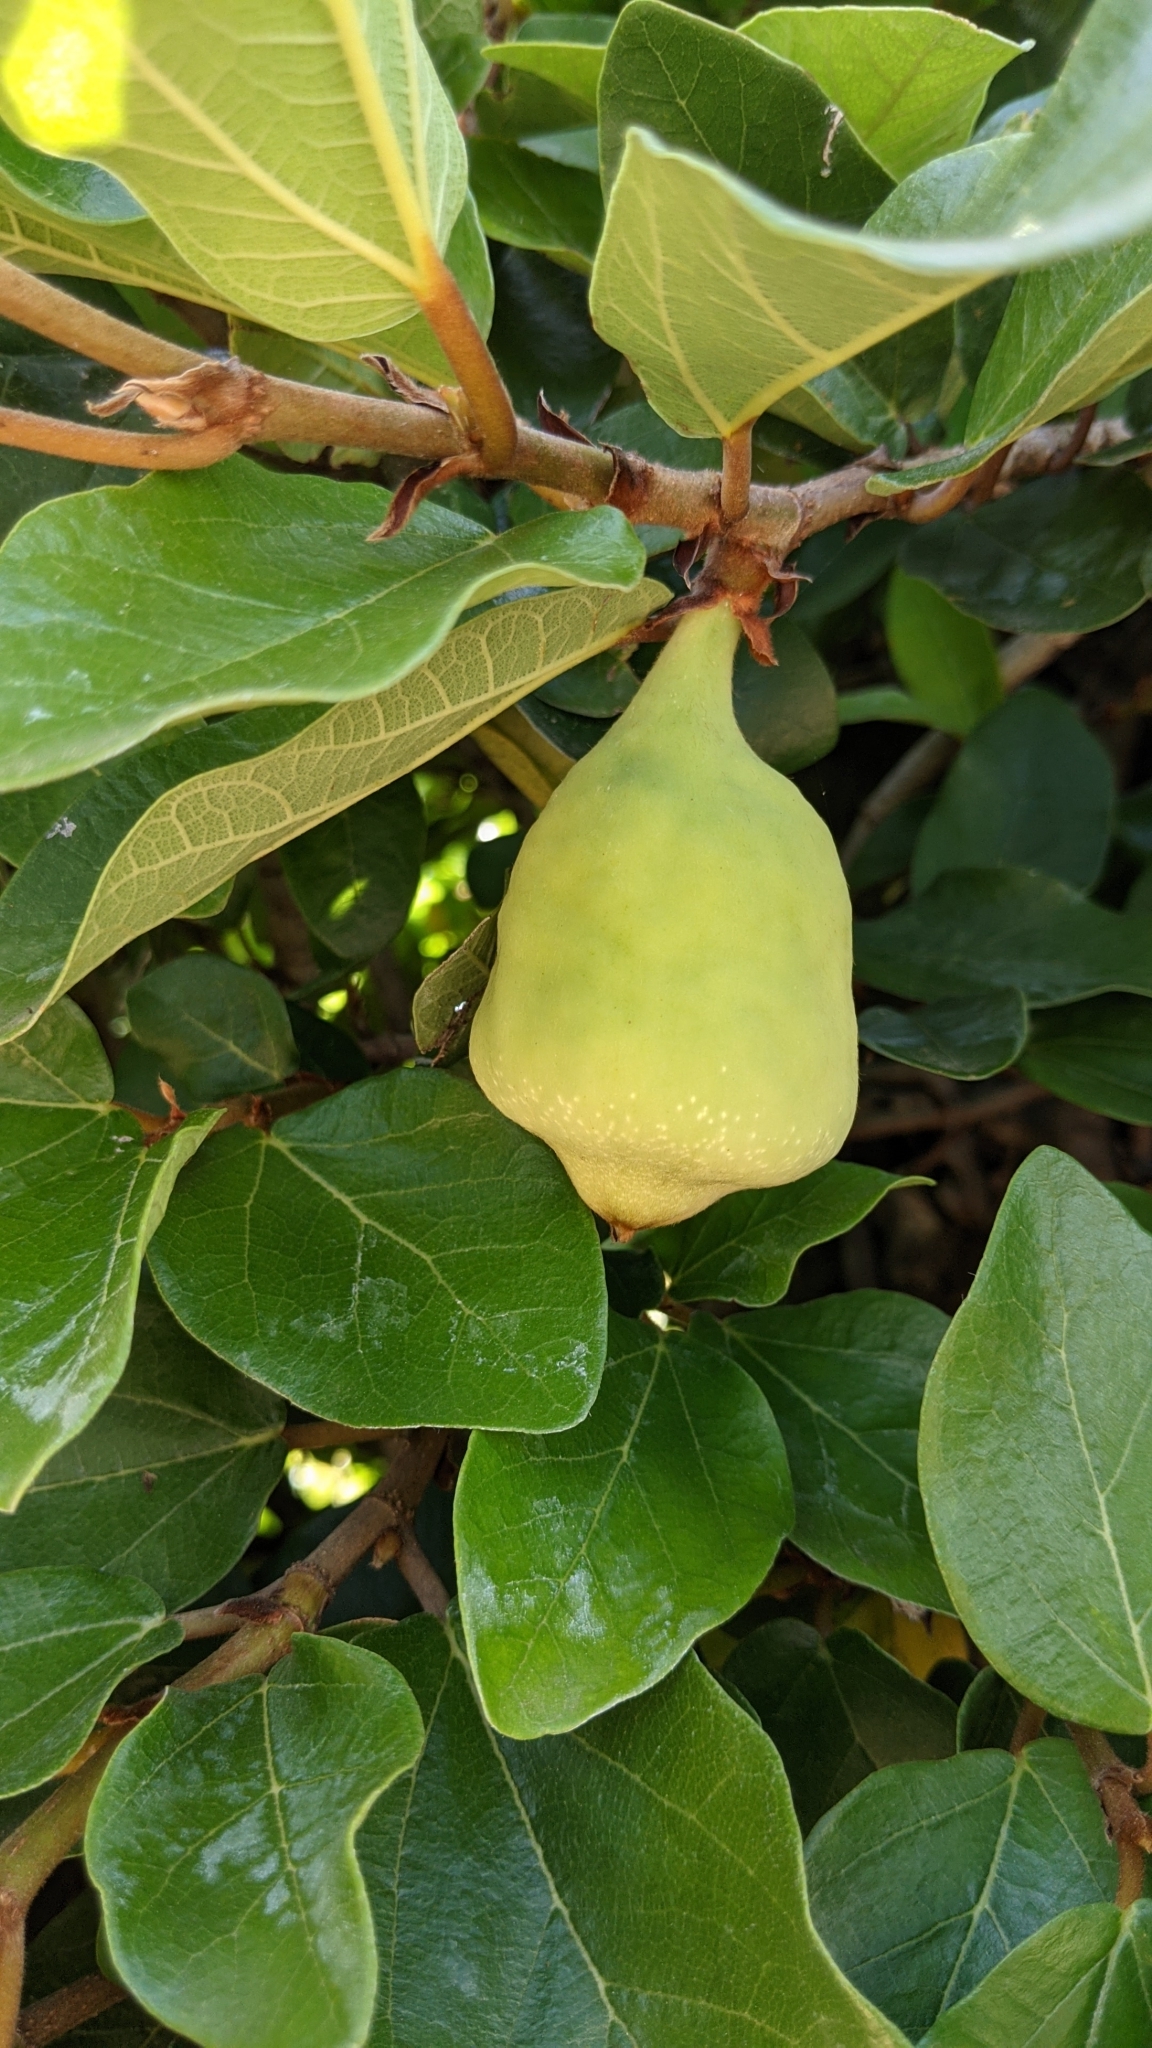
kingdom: Plantae
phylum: Tracheophyta
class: Magnoliopsida
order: Rosales
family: Moraceae
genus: Ficus
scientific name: Ficus pumila
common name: Climbingfig
